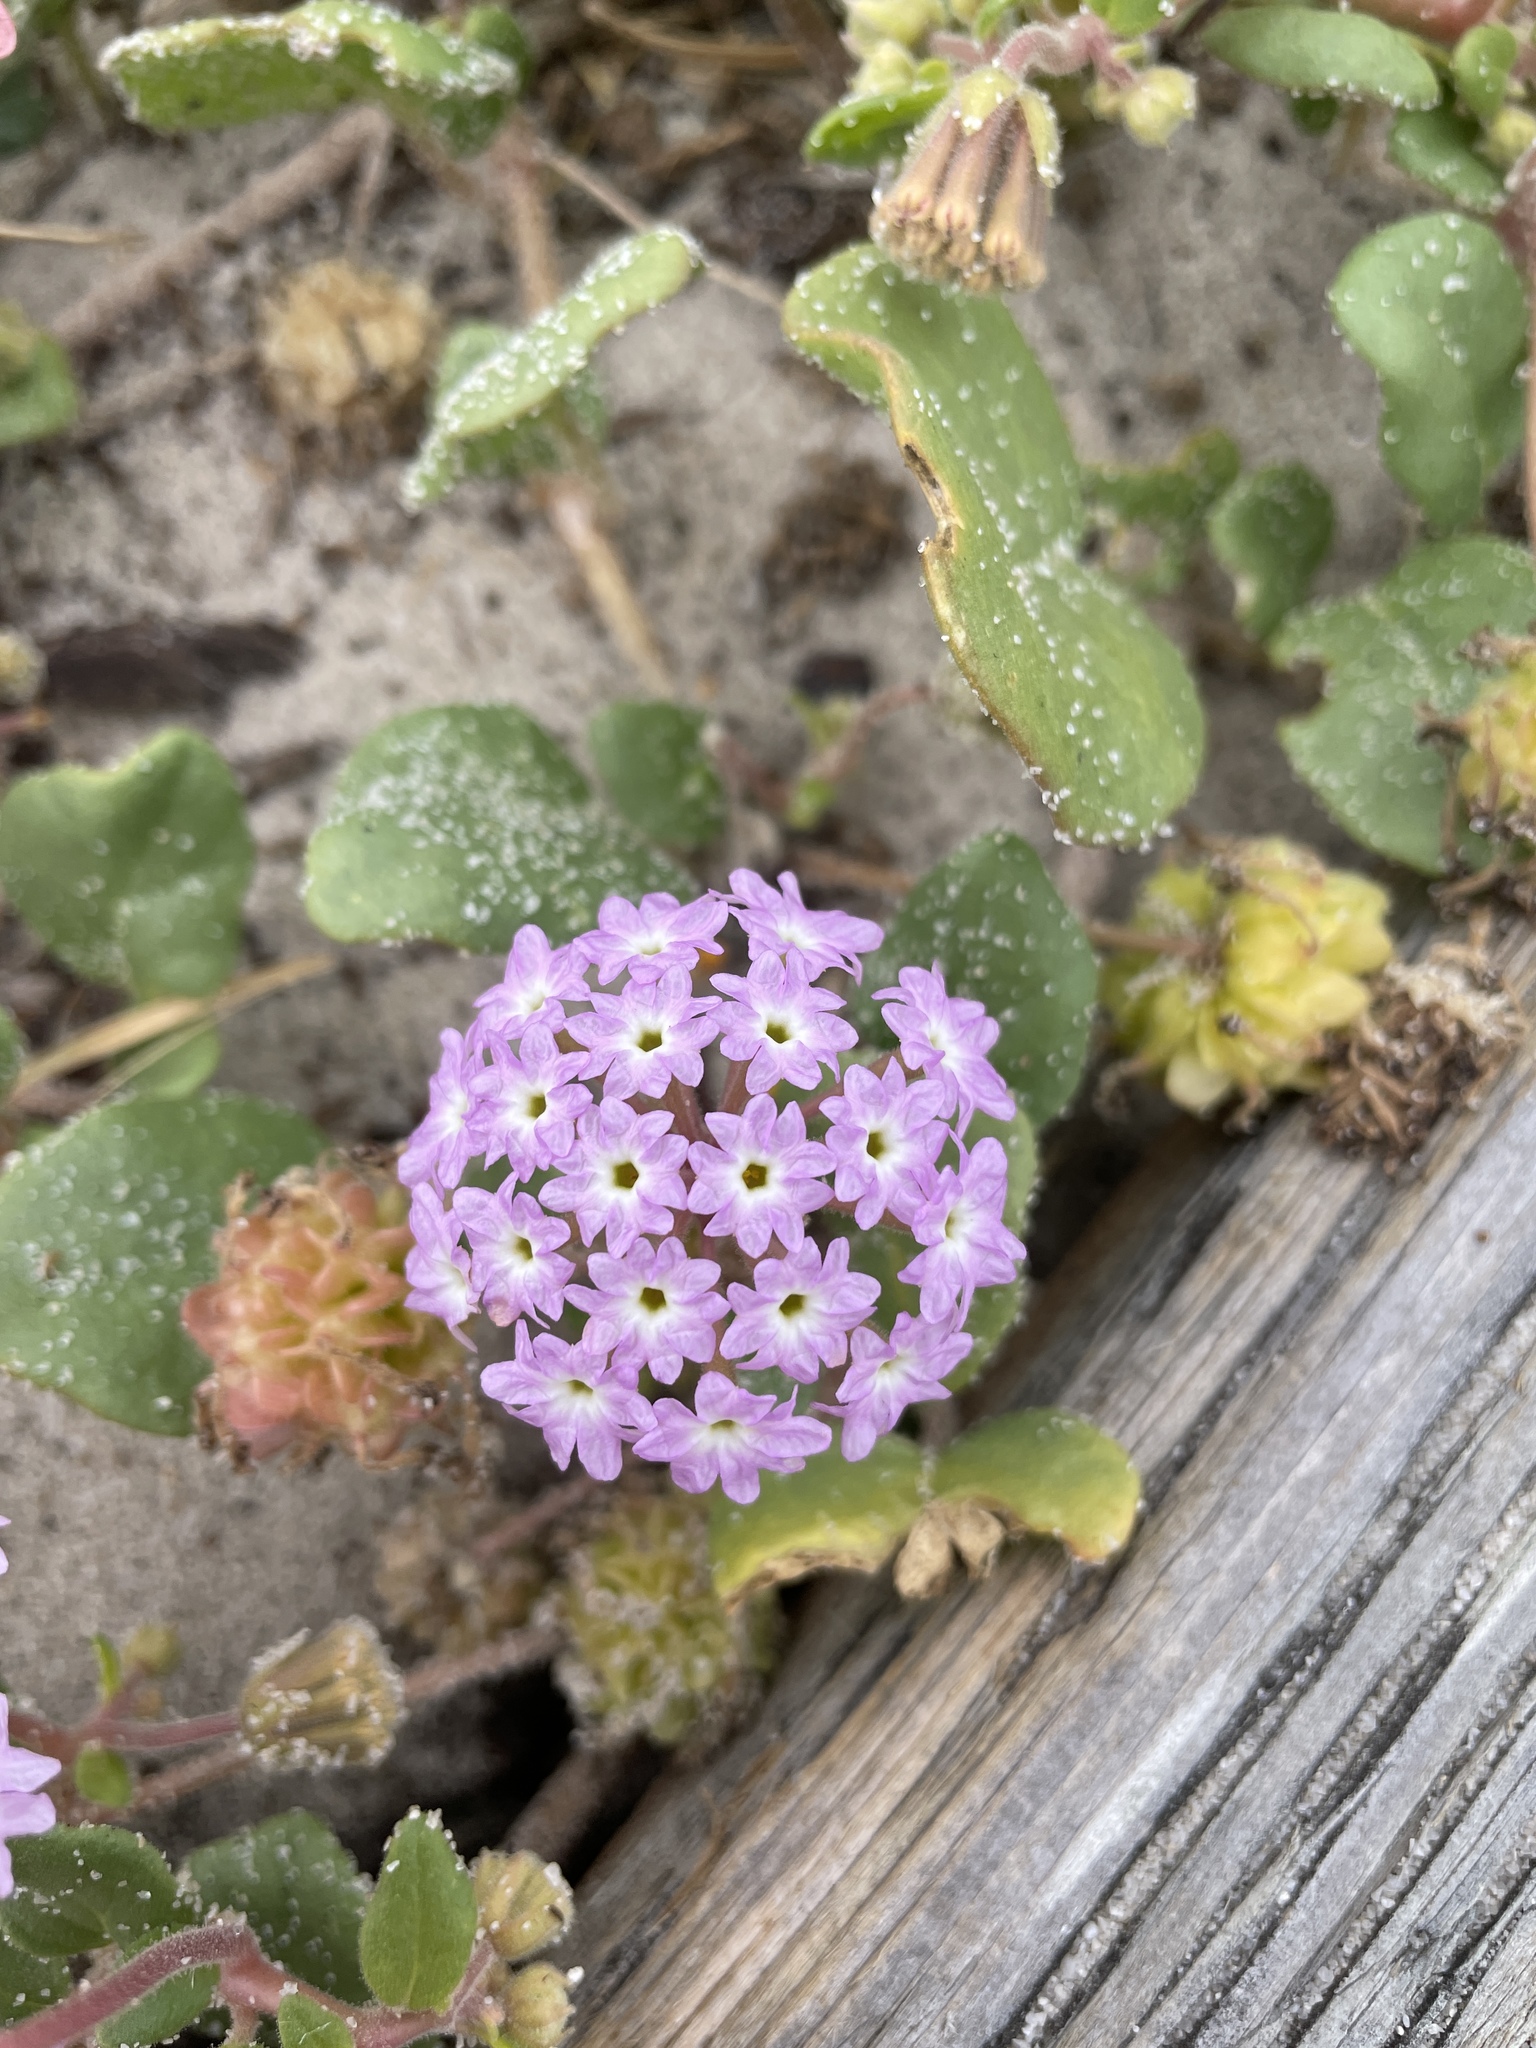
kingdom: Plantae
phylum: Tracheophyta
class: Magnoliopsida
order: Caryophyllales
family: Nyctaginaceae
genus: Abronia
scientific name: Abronia umbellata
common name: Sand-verbena
